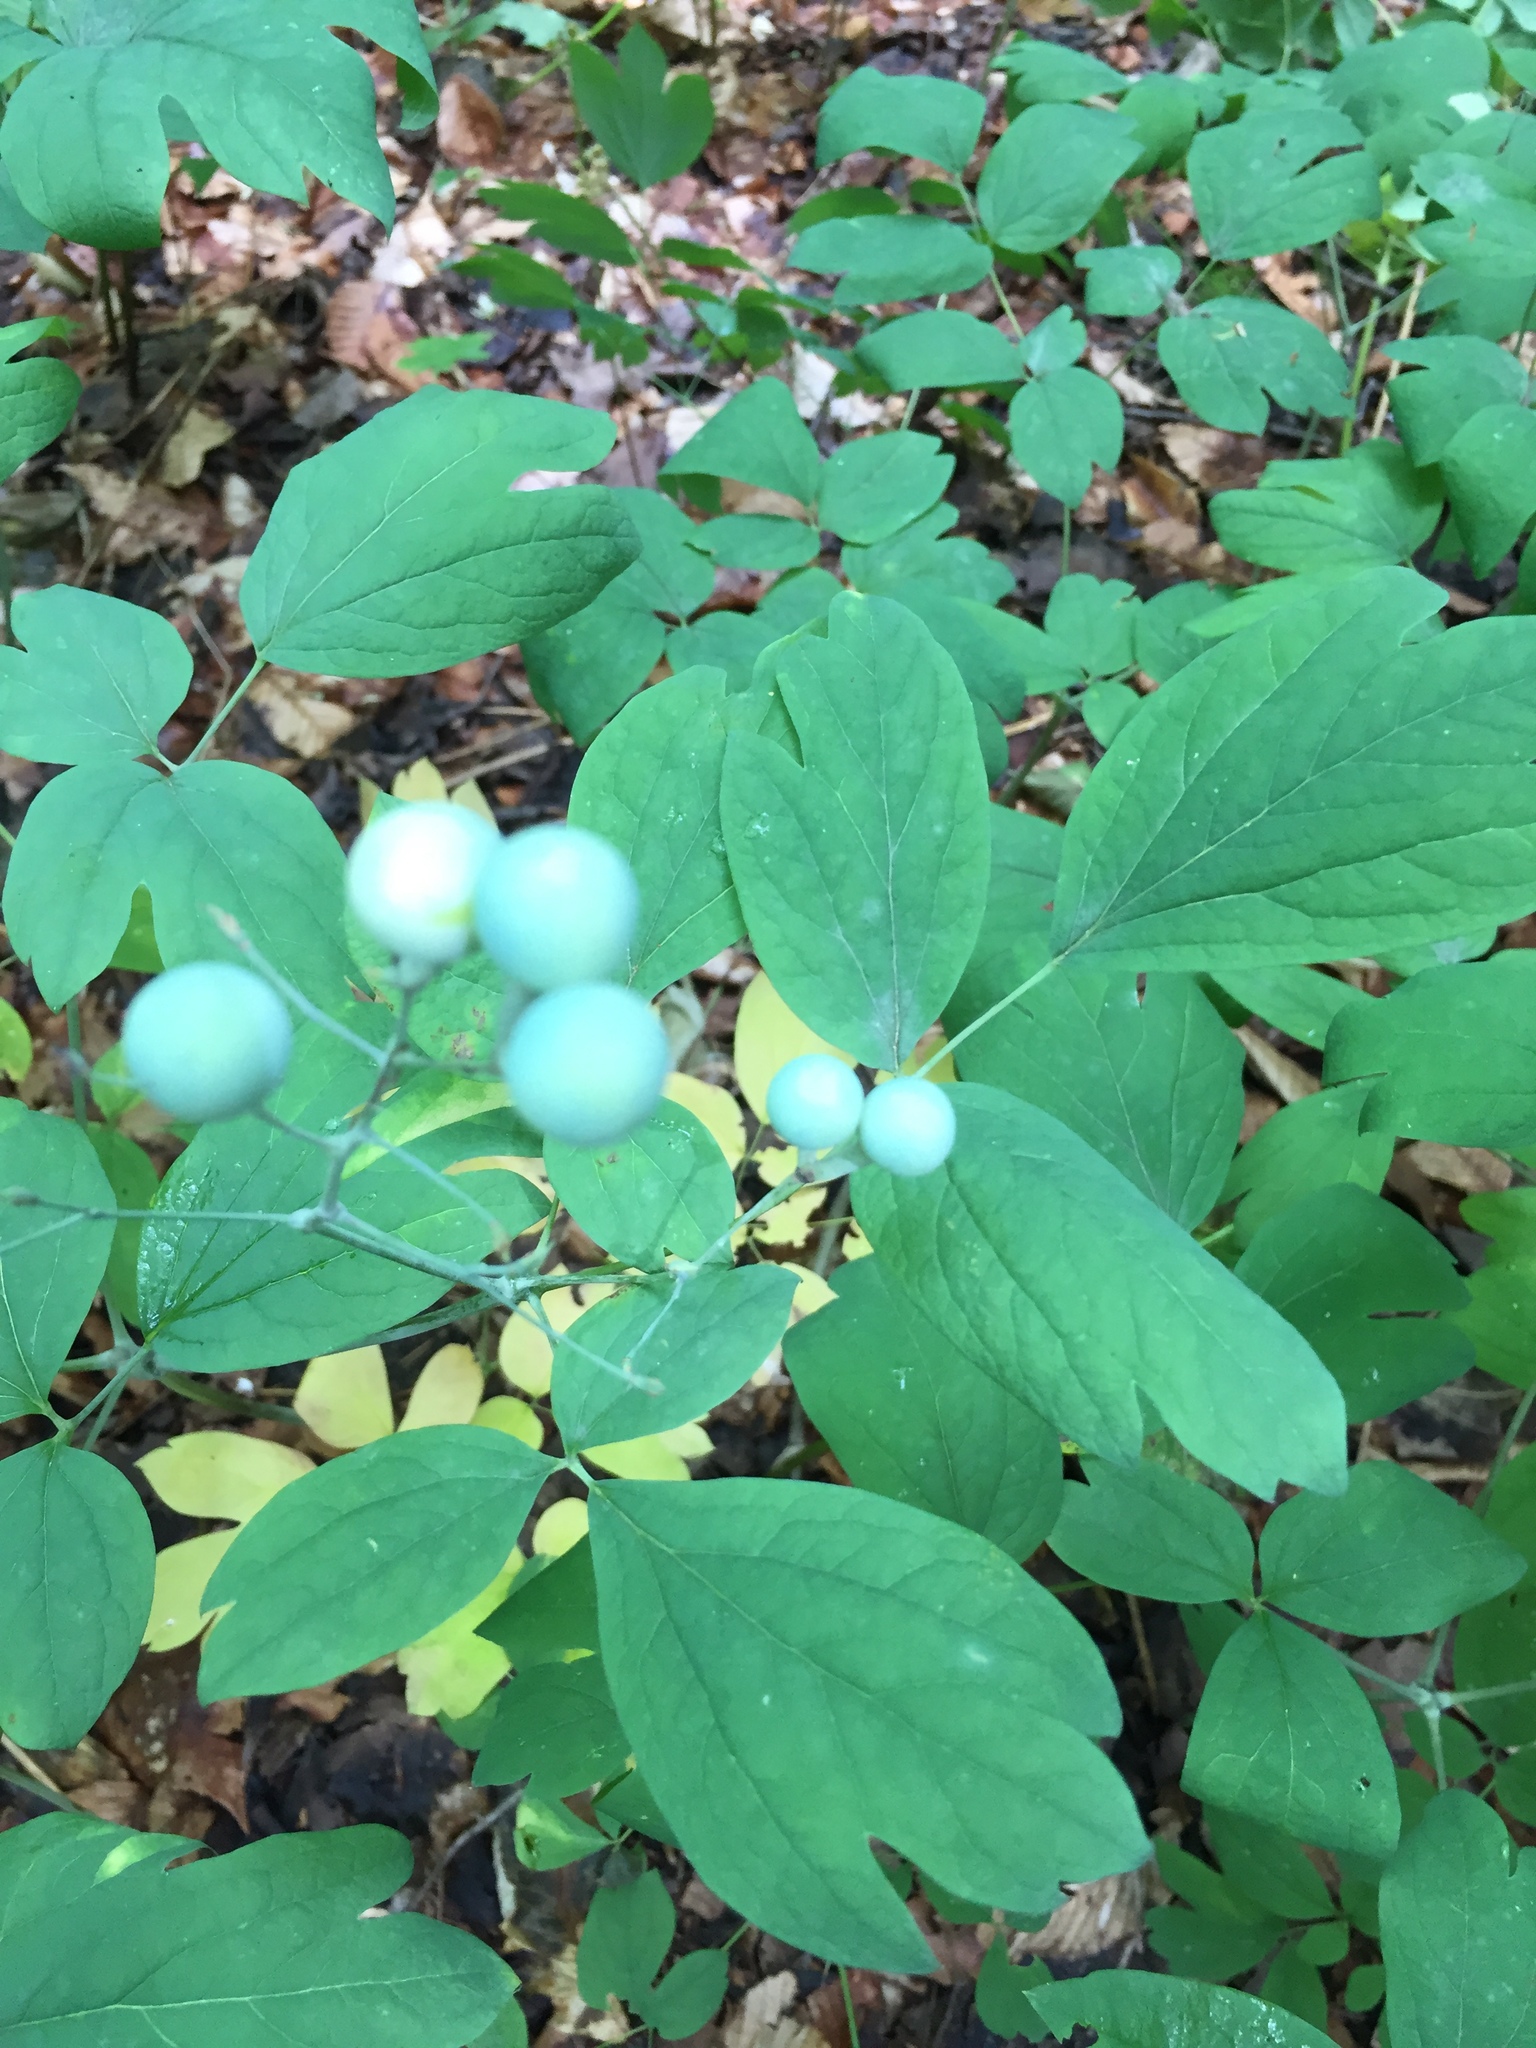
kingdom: Plantae
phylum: Tracheophyta
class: Magnoliopsida
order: Ranunculales
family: Berberidaceae
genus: Caulophyllum
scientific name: Caulophyllum thalictroides
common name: Blue cohosh
